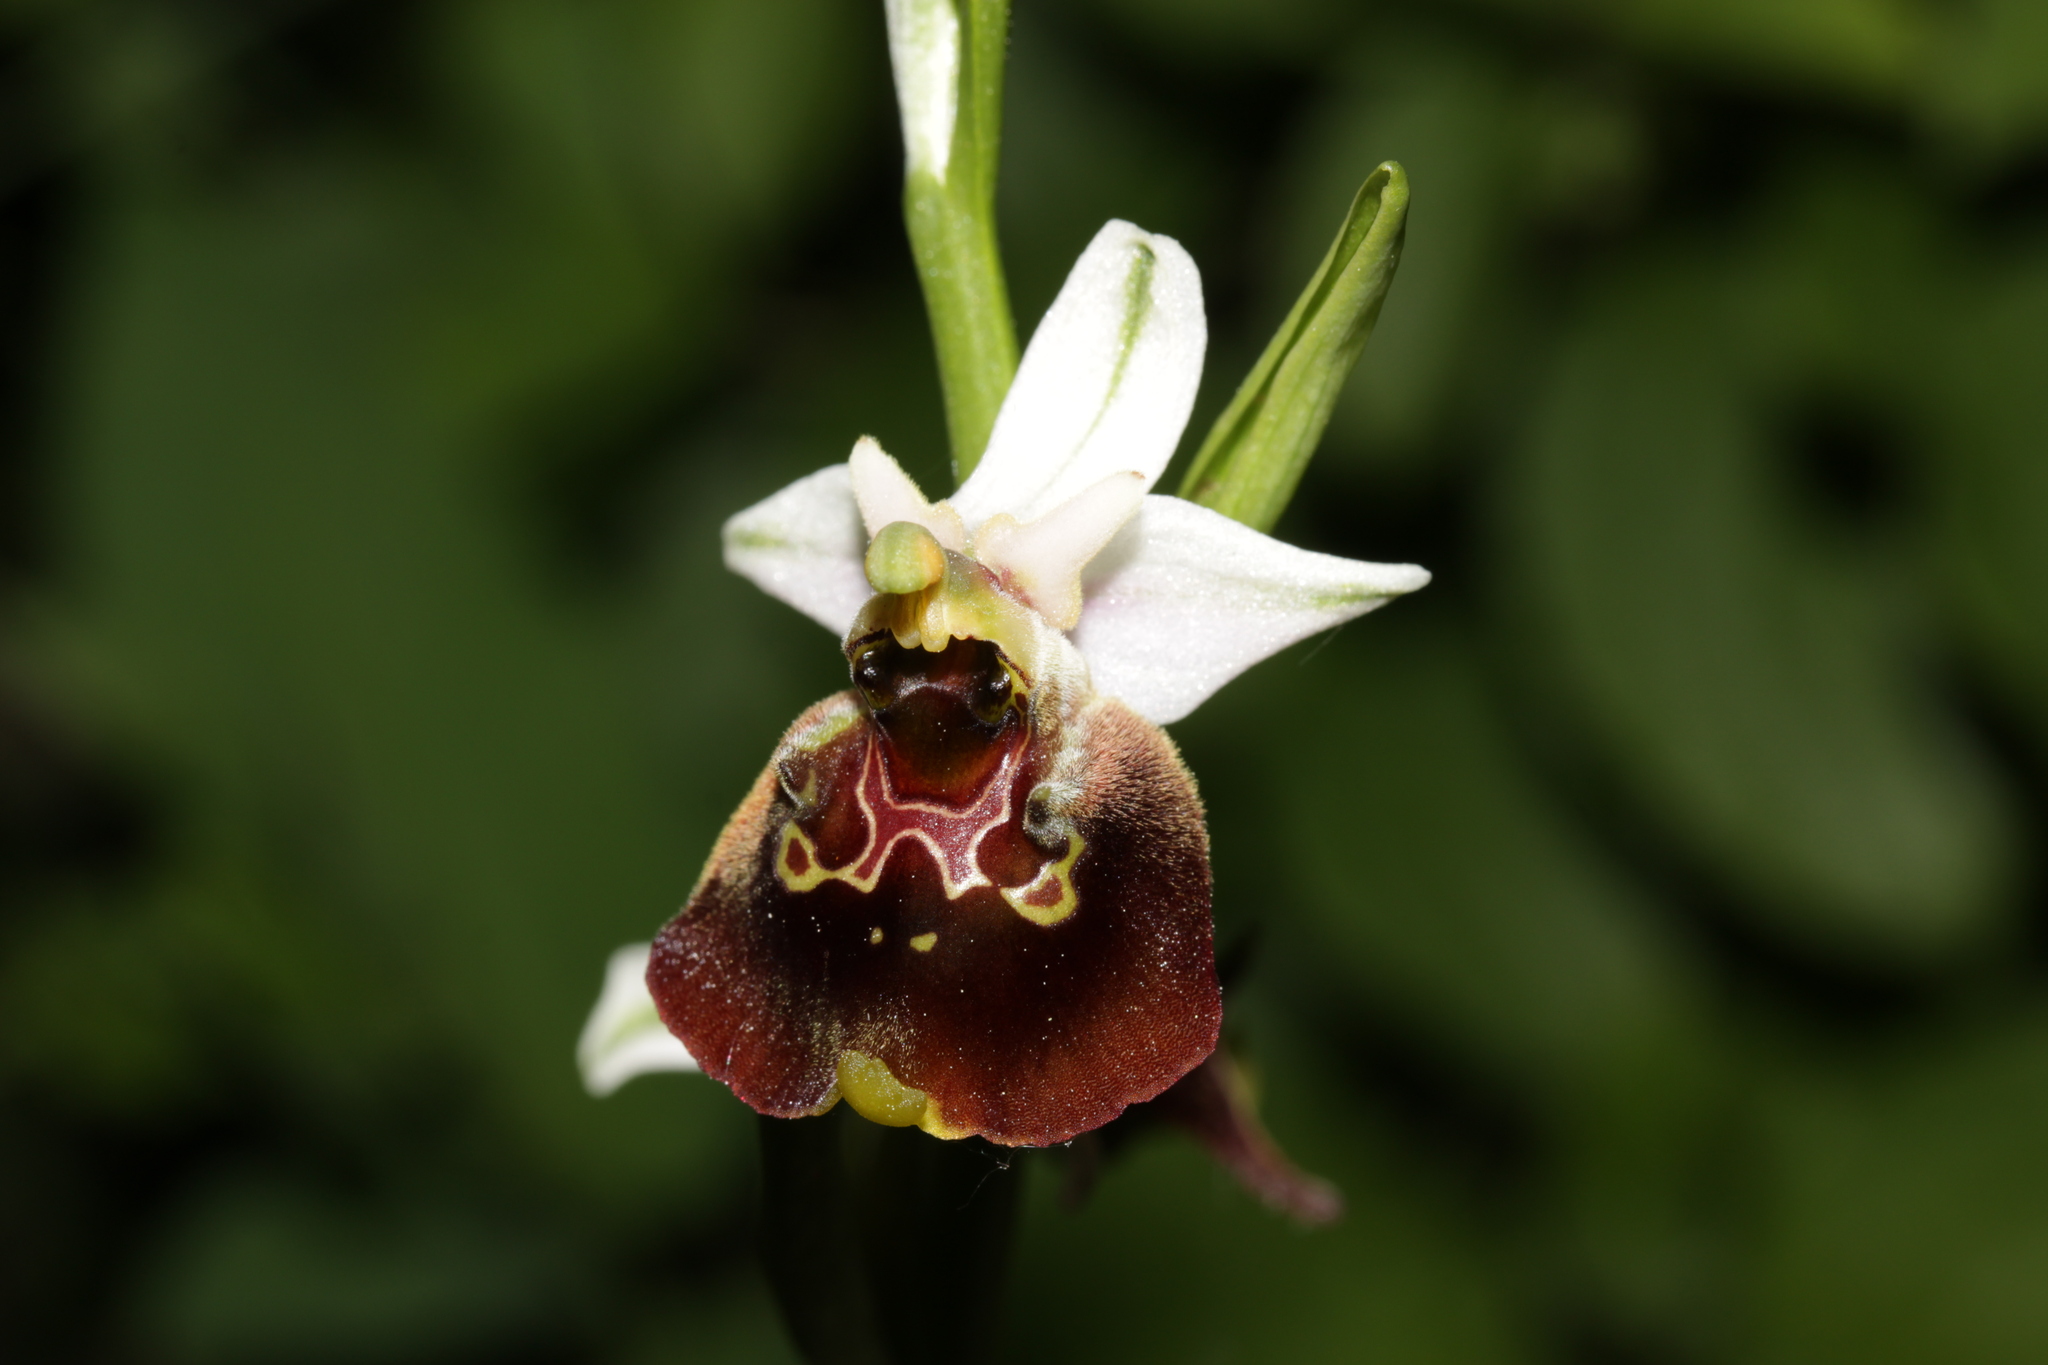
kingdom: Plantae
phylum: Tracheophyta
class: Liliopsida
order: Asparagales
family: Orchidaceae
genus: Ophrys
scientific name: Ophrys holosericea
